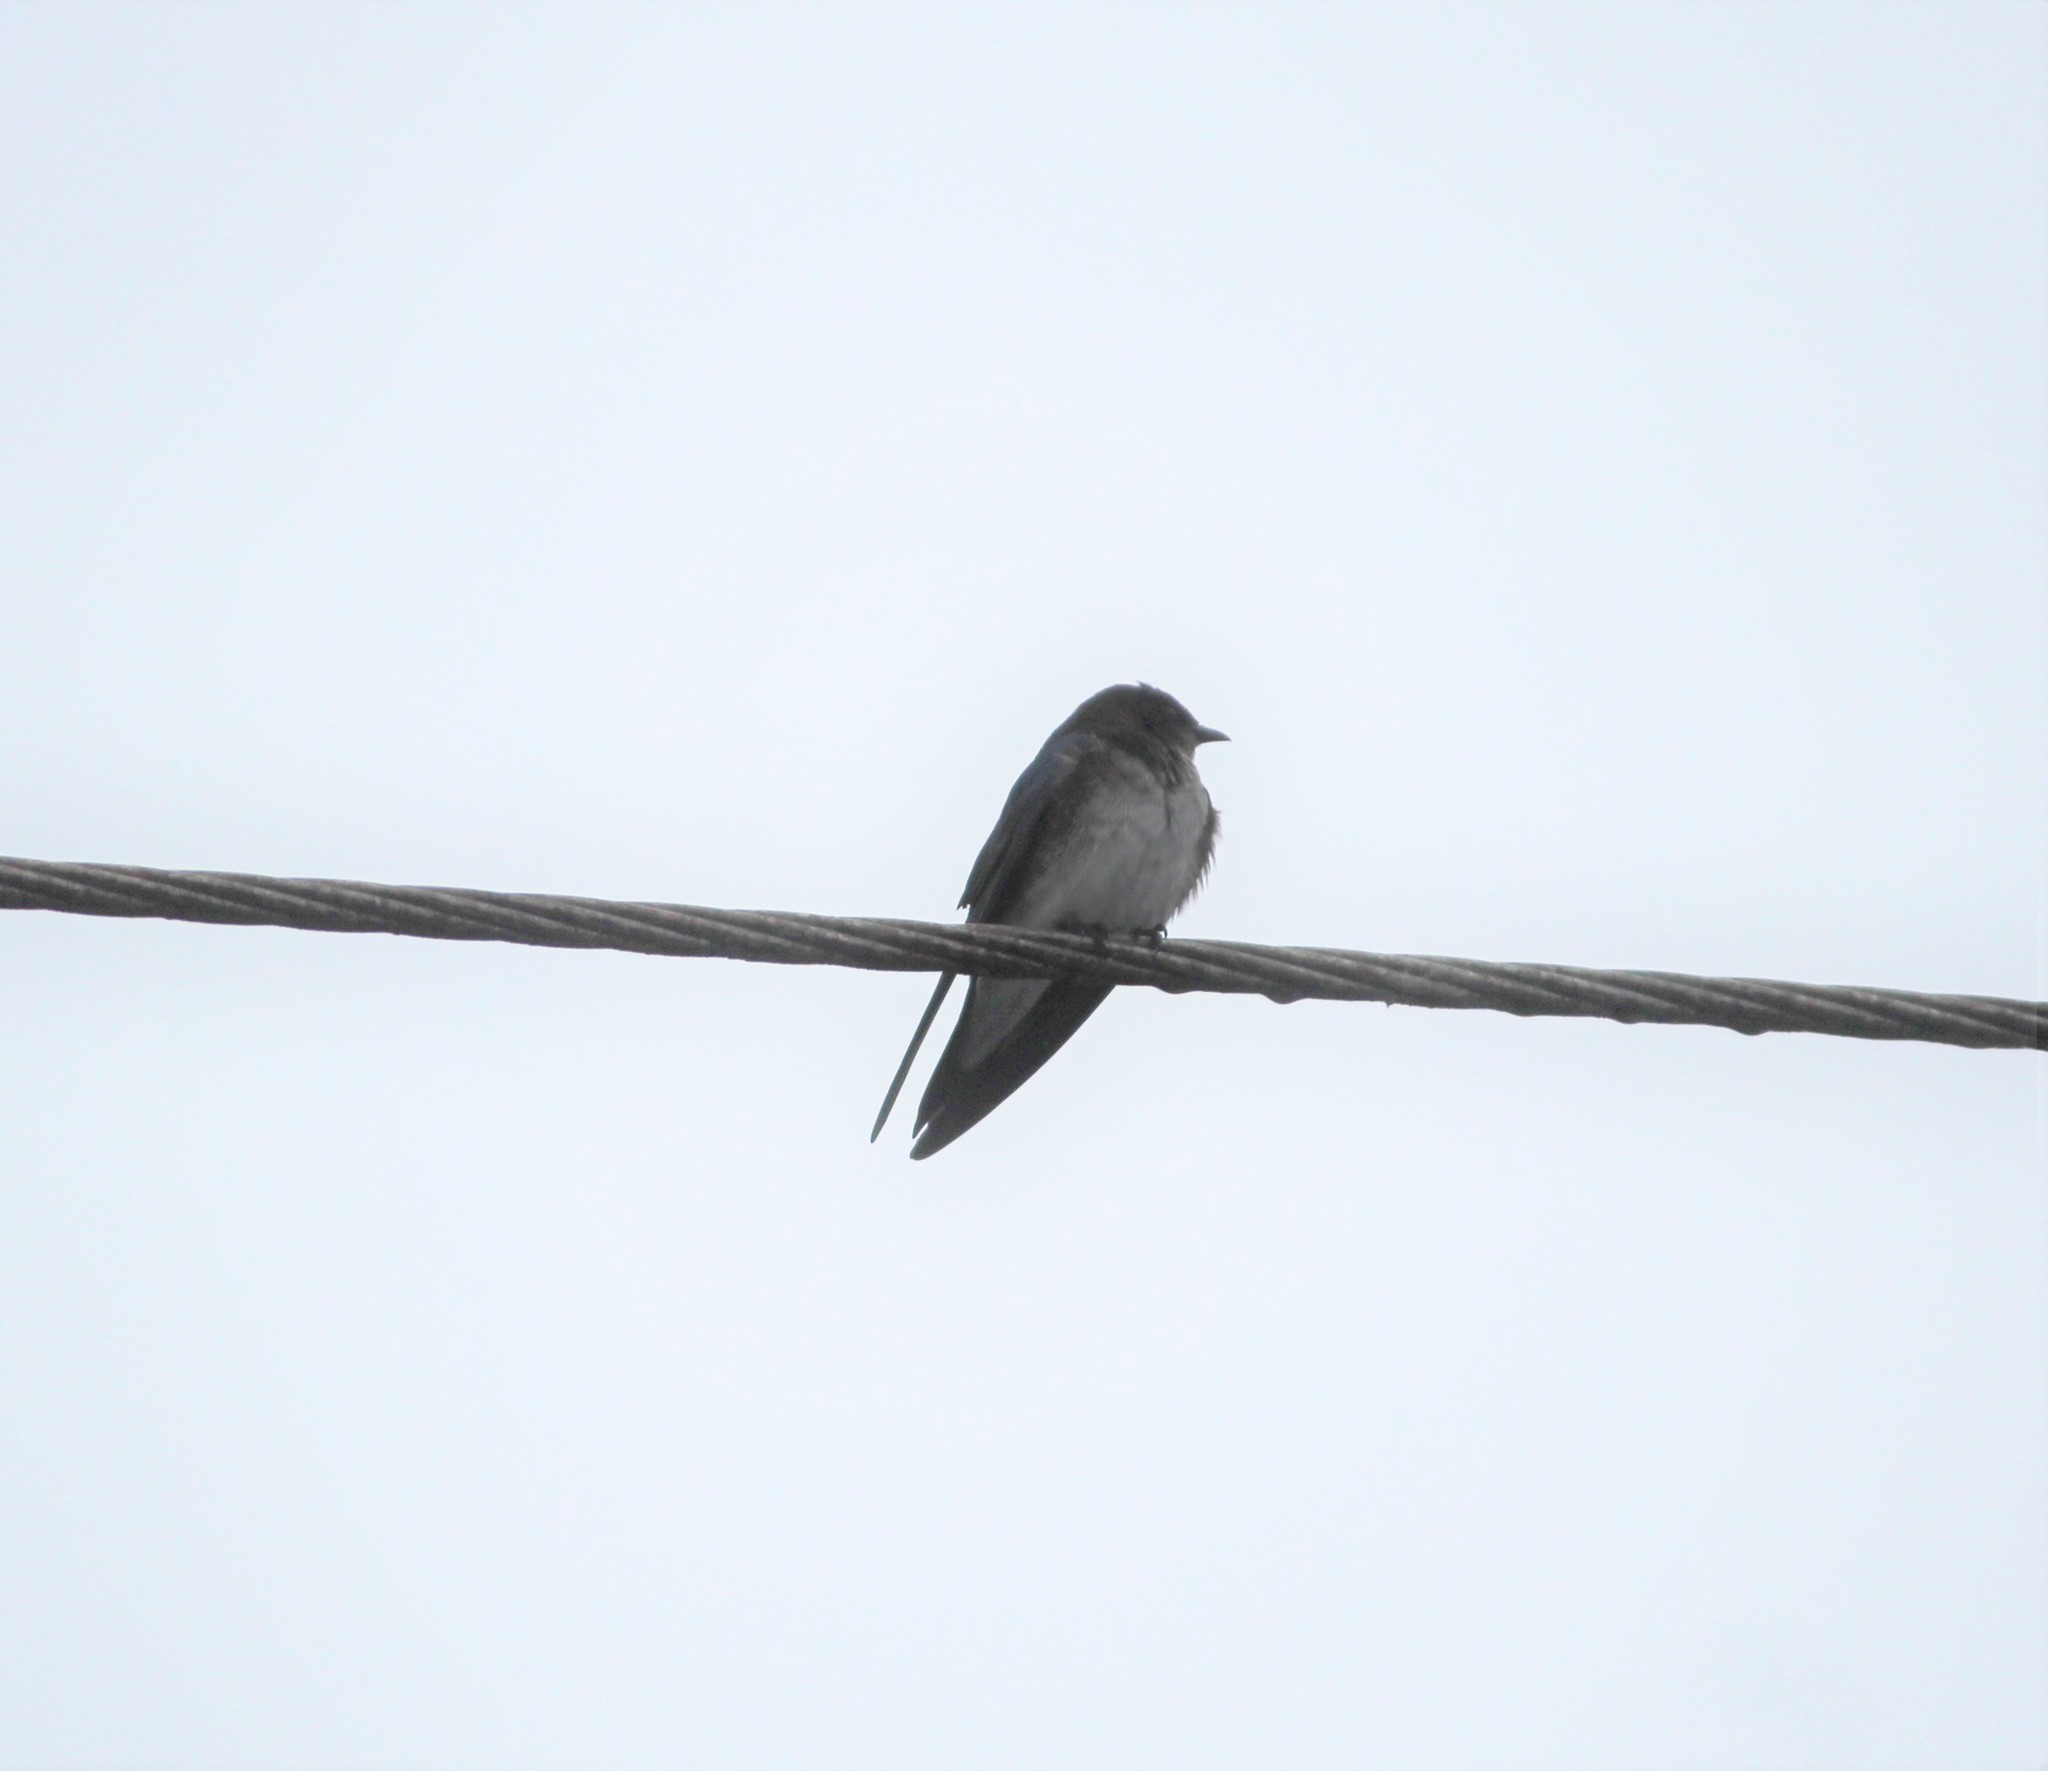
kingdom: Animalia
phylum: Chordata
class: Aves
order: Passeriformes
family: Hirundinidae
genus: Progne
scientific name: Progne chalybea
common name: Grey-breasted martin
